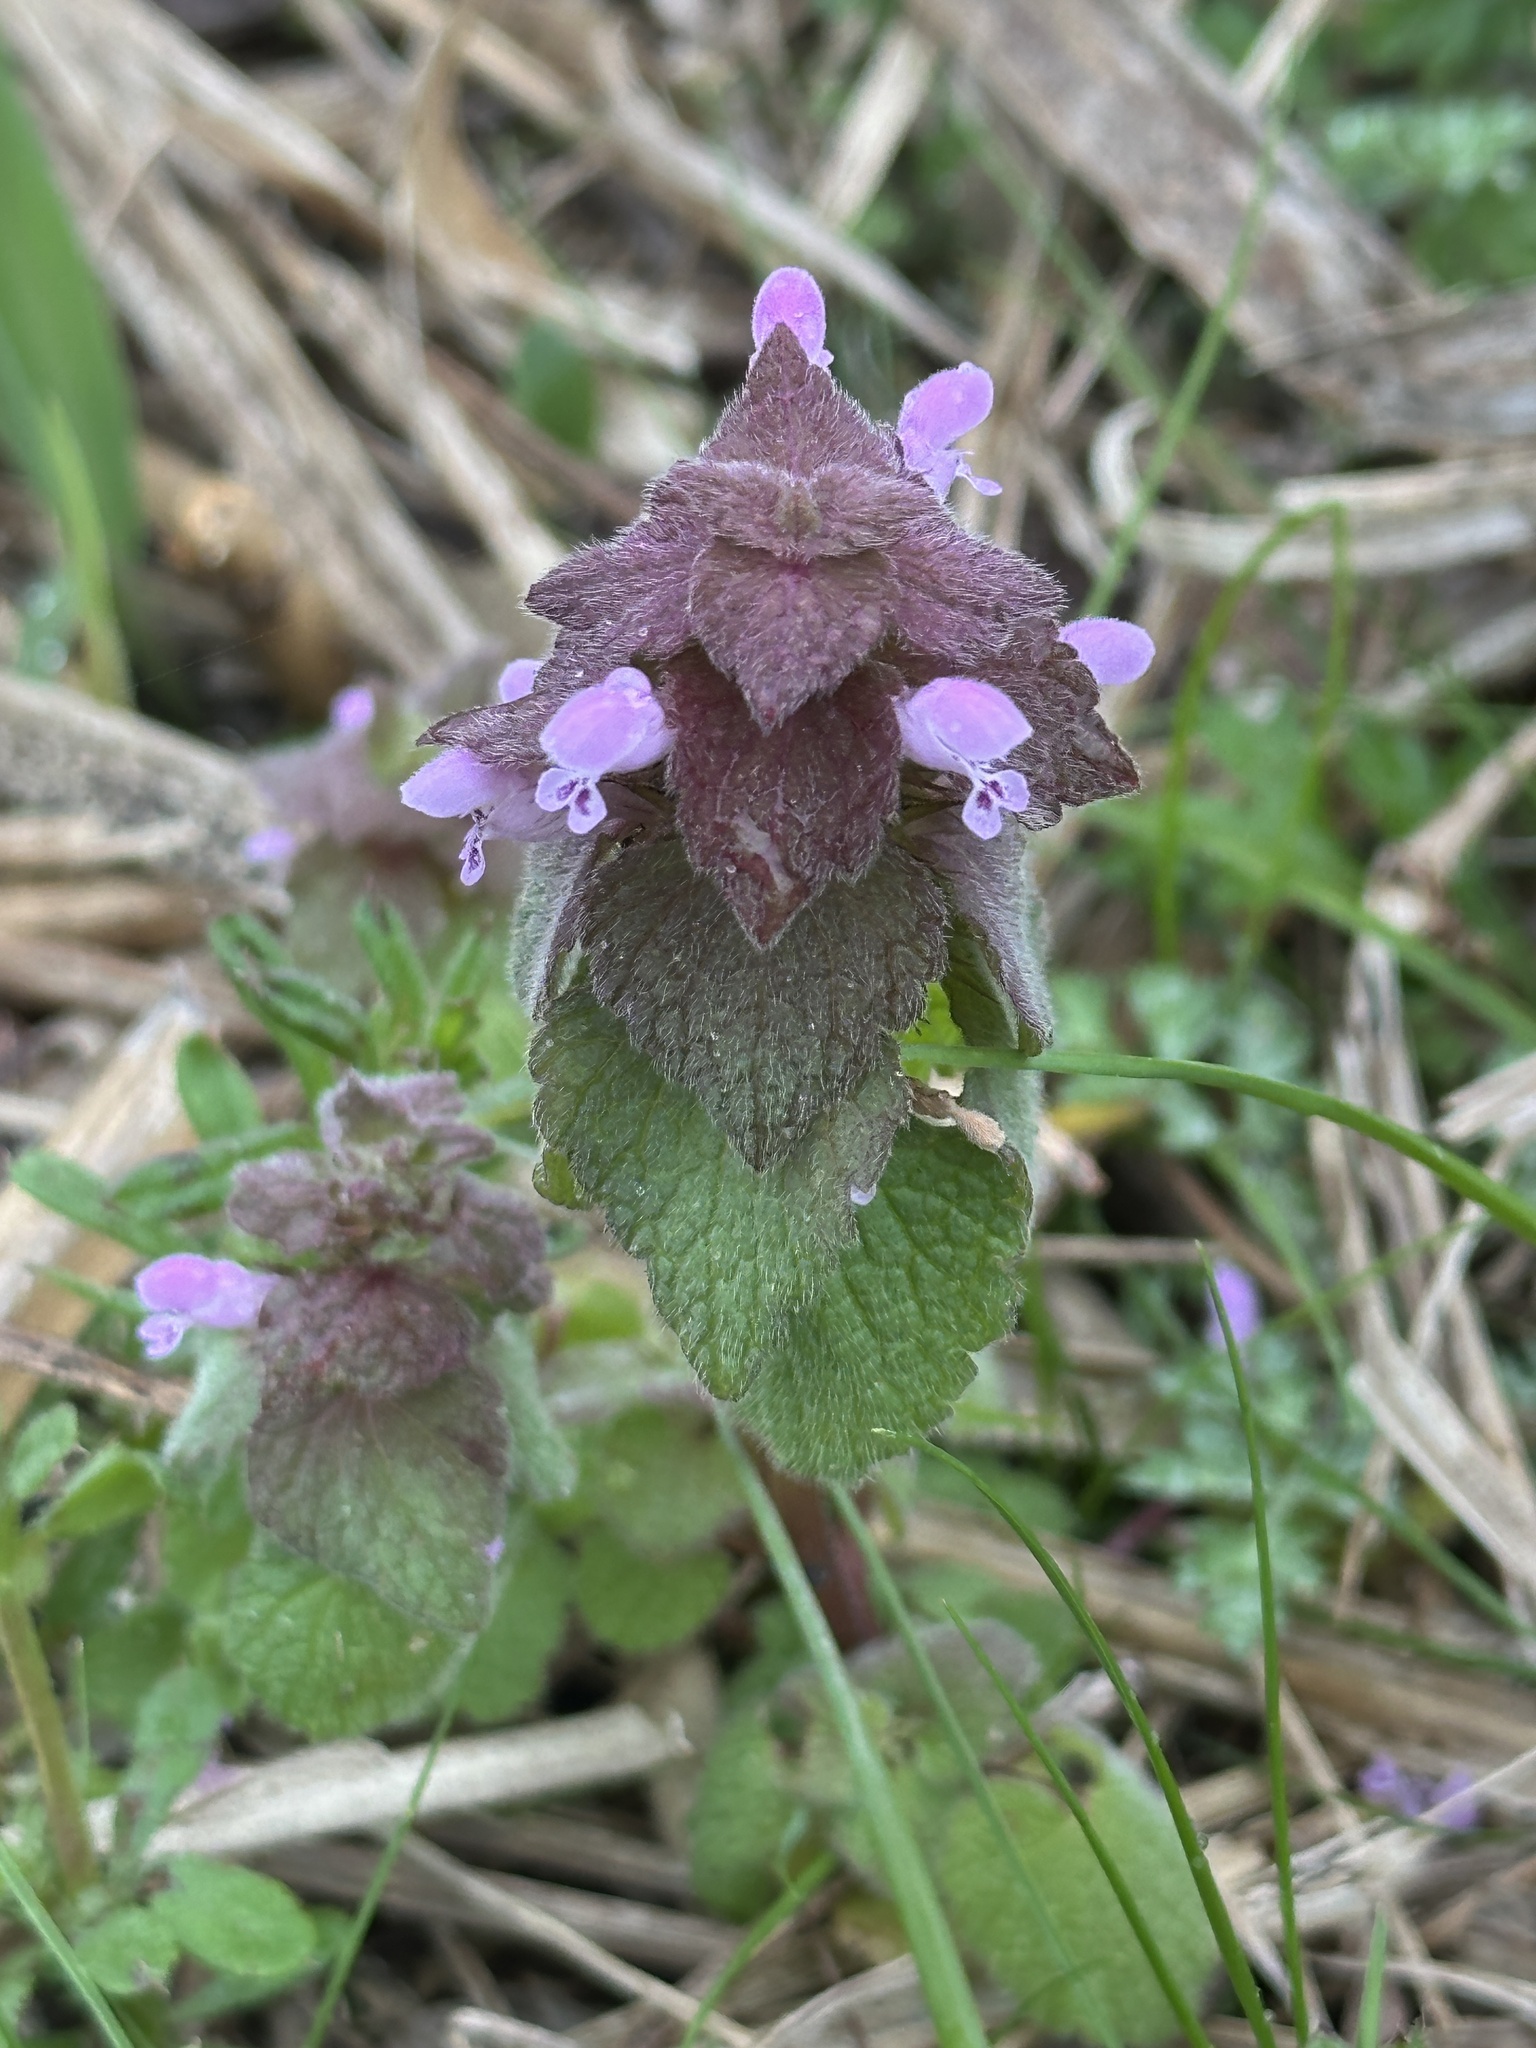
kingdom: Plantae
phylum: Tracheophyta
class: Magnoliopsida
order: Lamiales
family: Lamiaceae
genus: Lamium
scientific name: Lamium purpureum
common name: Red dead-nettle
